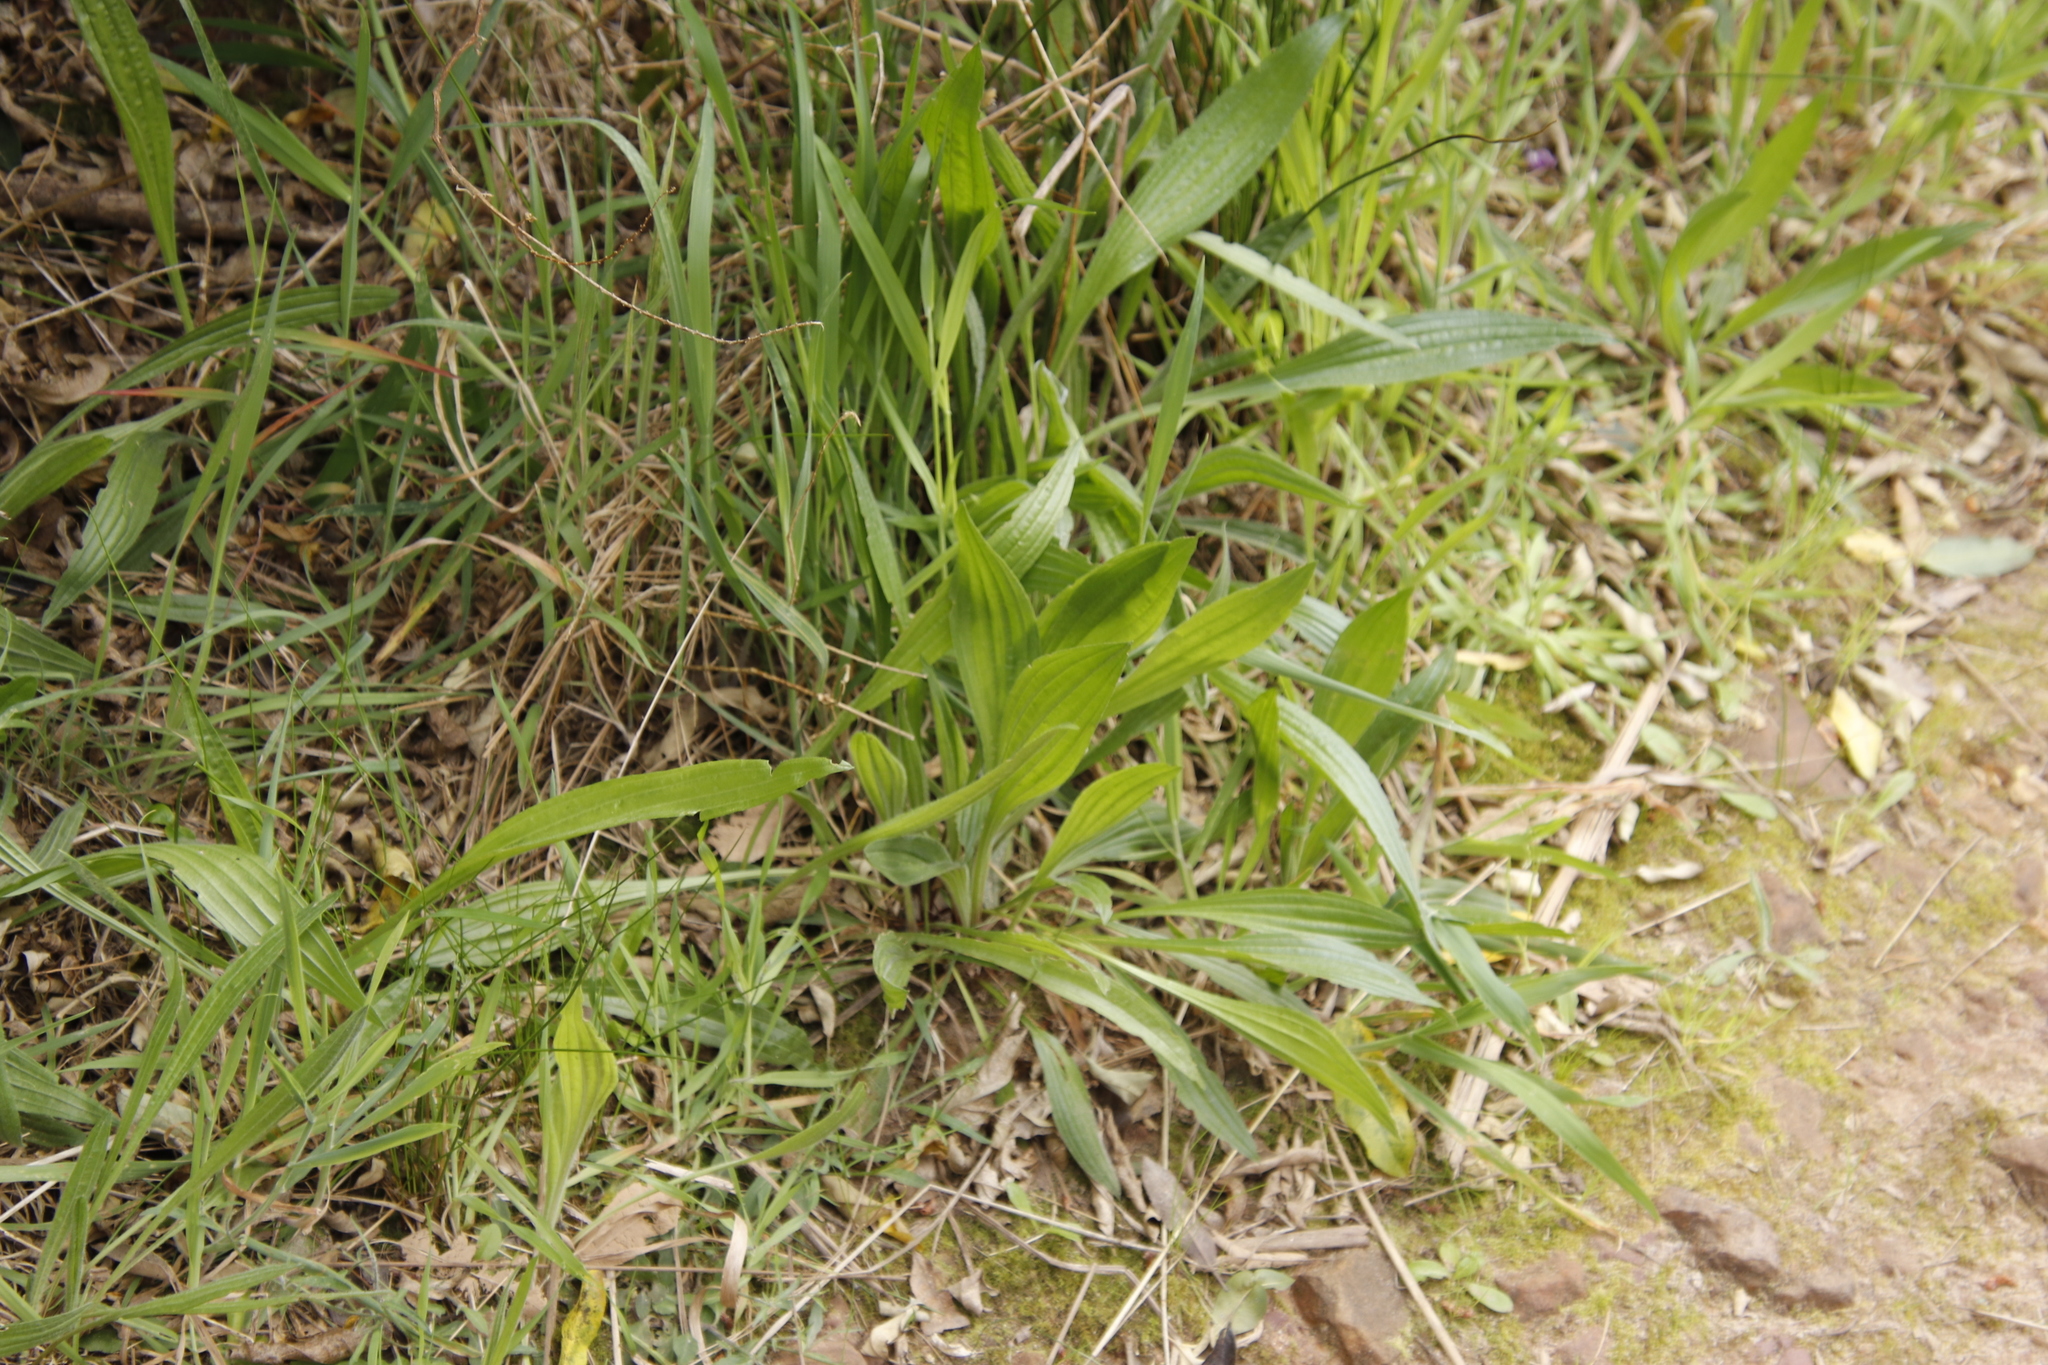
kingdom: Plantae
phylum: Tracheophyta
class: Magnoliopsida
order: Lamiales
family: Plantaginaceae
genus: Plantago
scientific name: Plantago lanceolata
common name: Ribwort plantain
